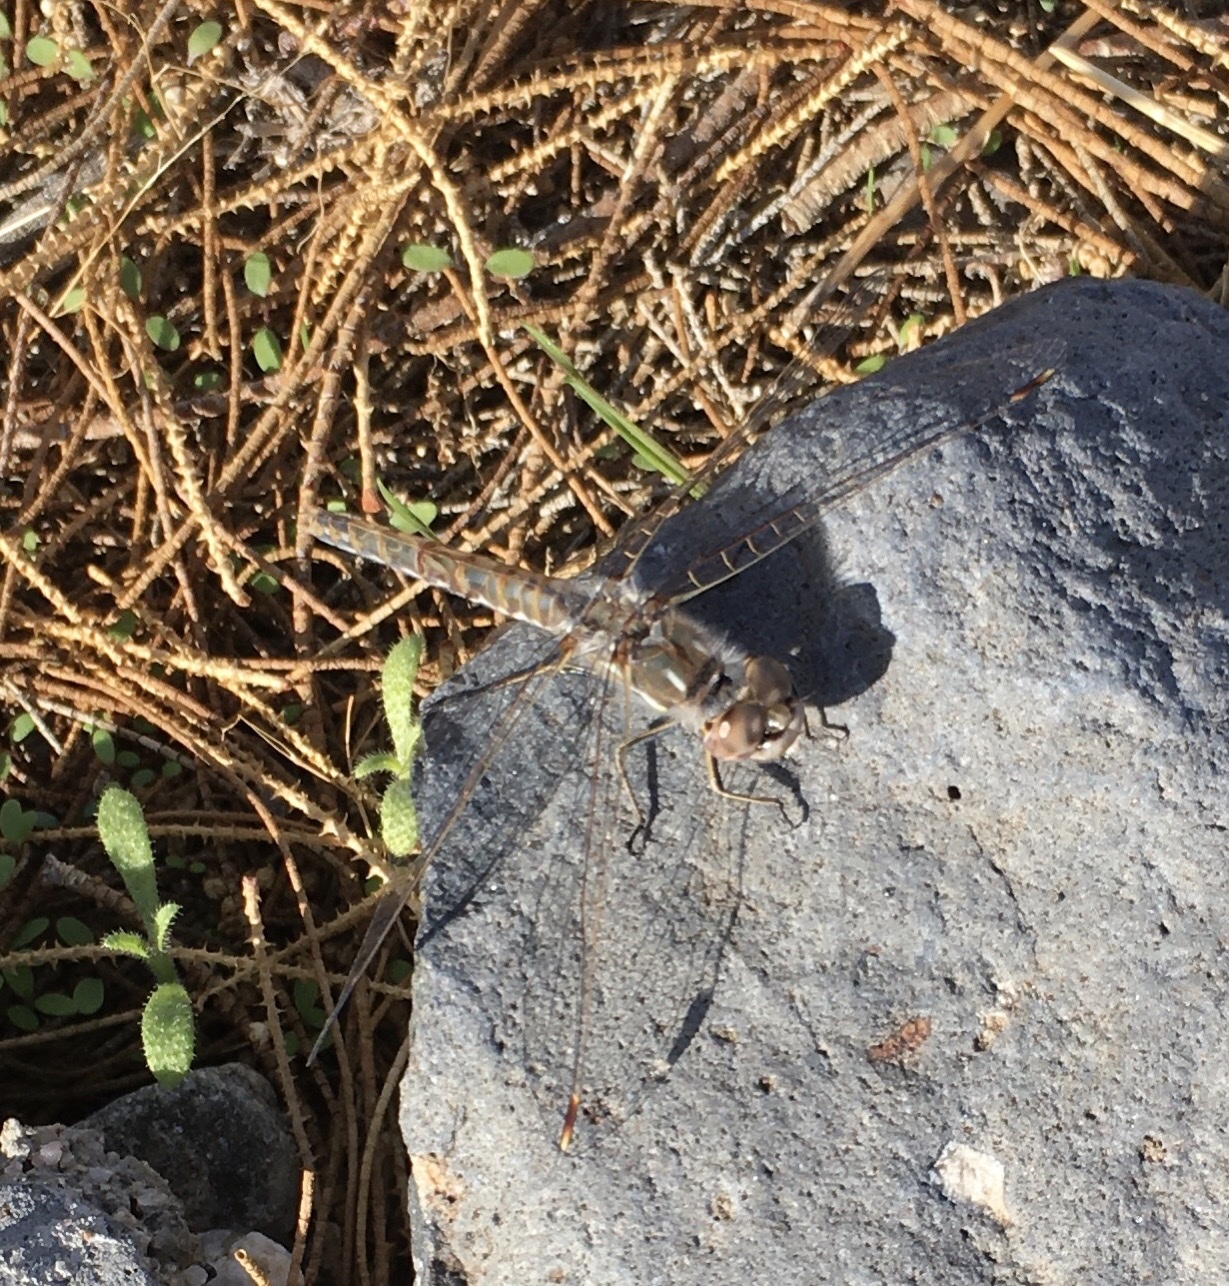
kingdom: Animalia
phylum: Arthropoda
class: Insecta
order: Odonata
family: Libellulidae
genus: Sympetrum
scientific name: Sympetrum corruptum
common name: Variegated meadowhawk
